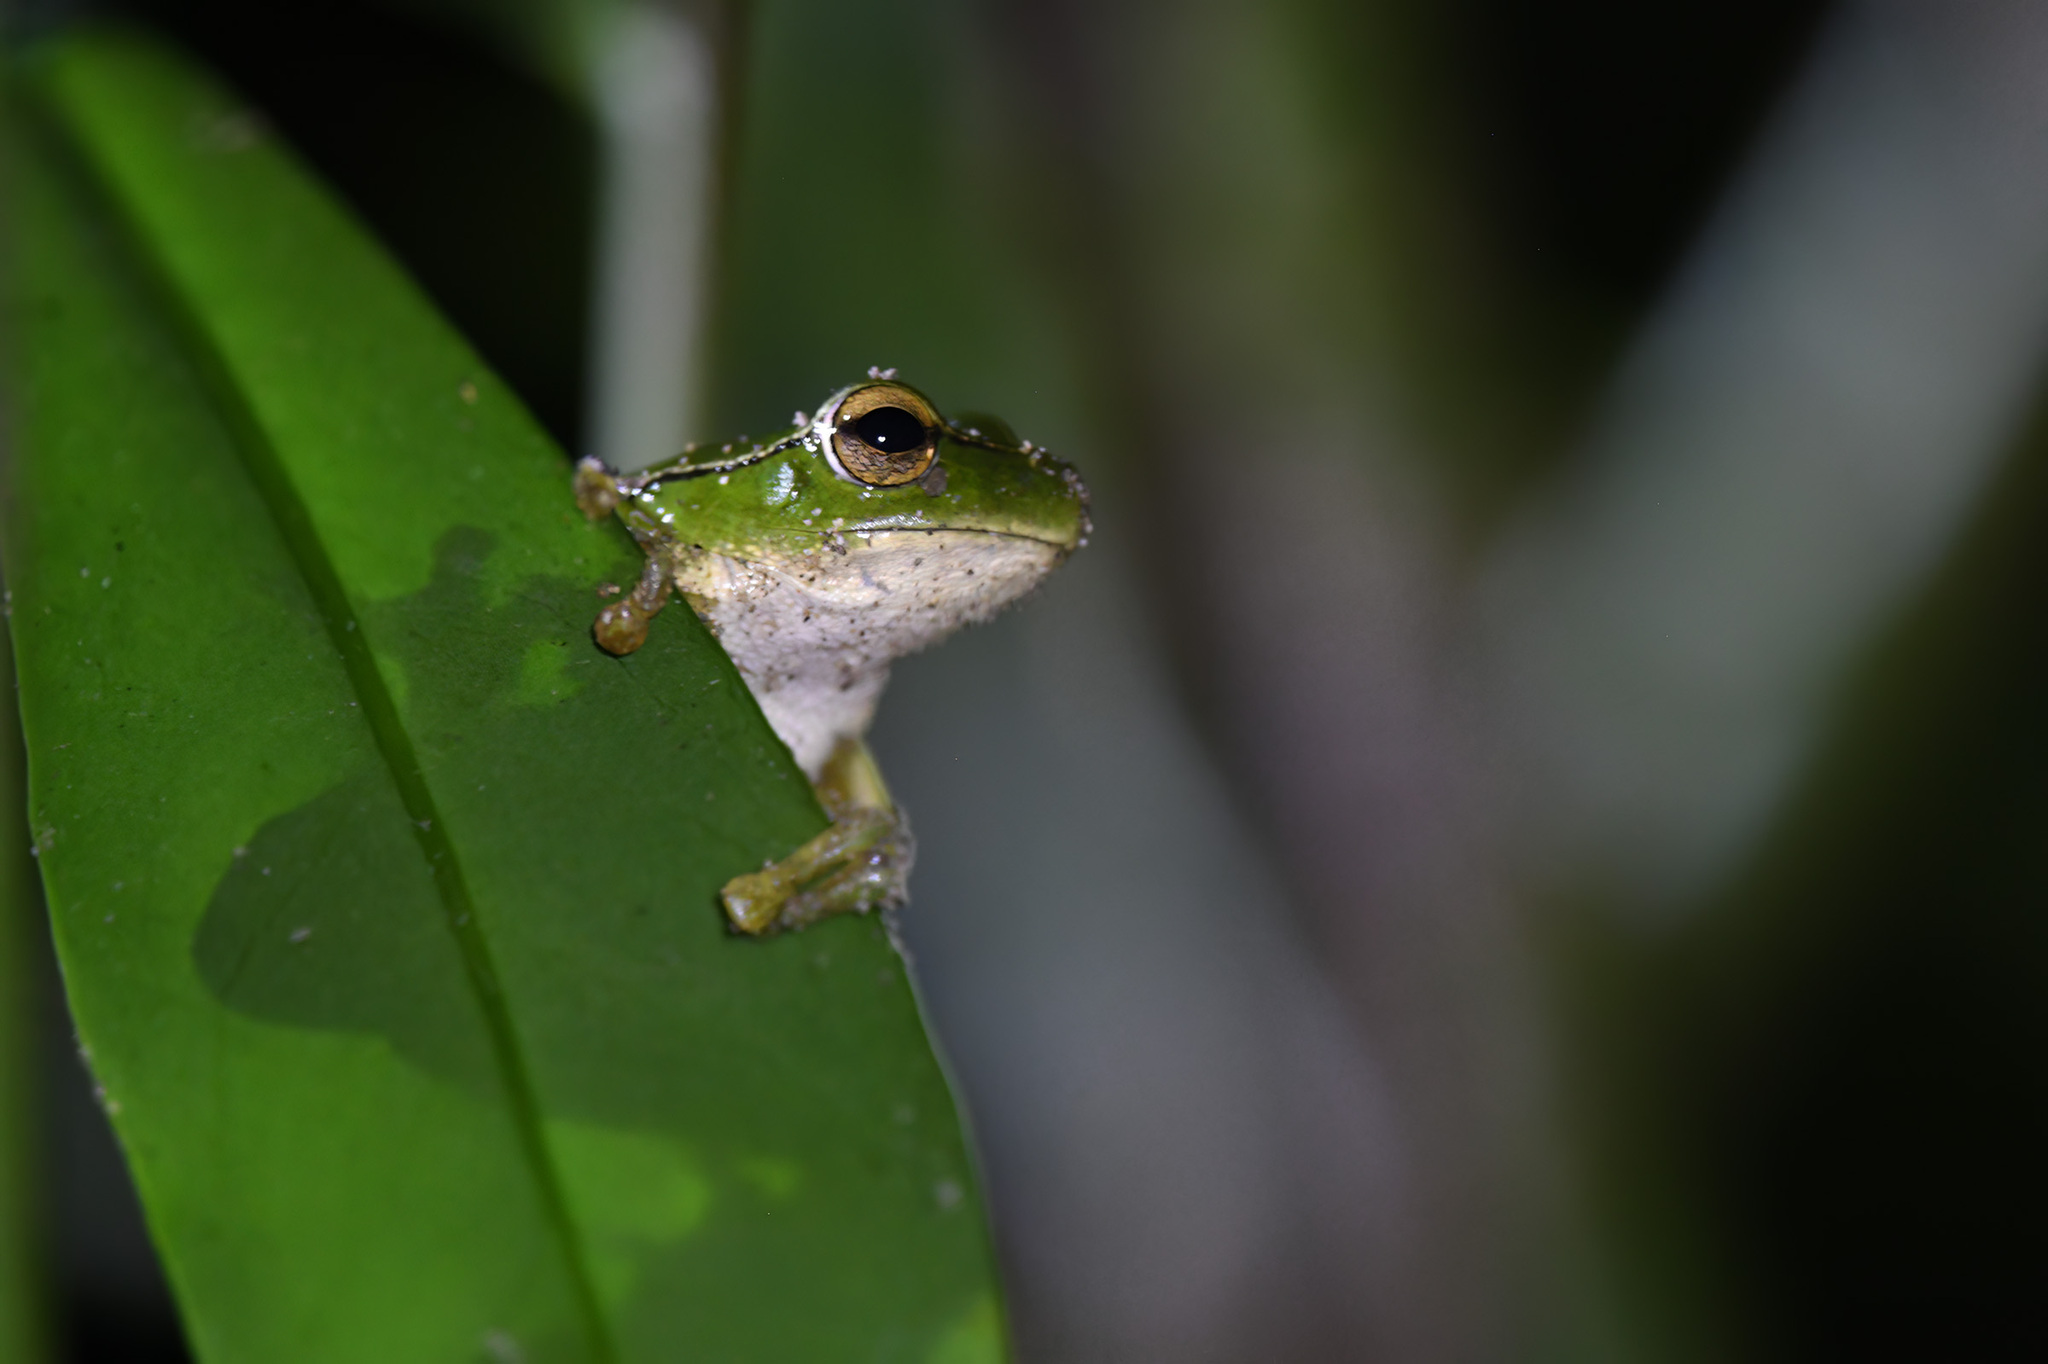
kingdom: Animalia
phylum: Chordata
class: Amphibia
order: Anura
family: Pelodryadidae
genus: Ranoidea
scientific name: Ranoidea phyllochroa
